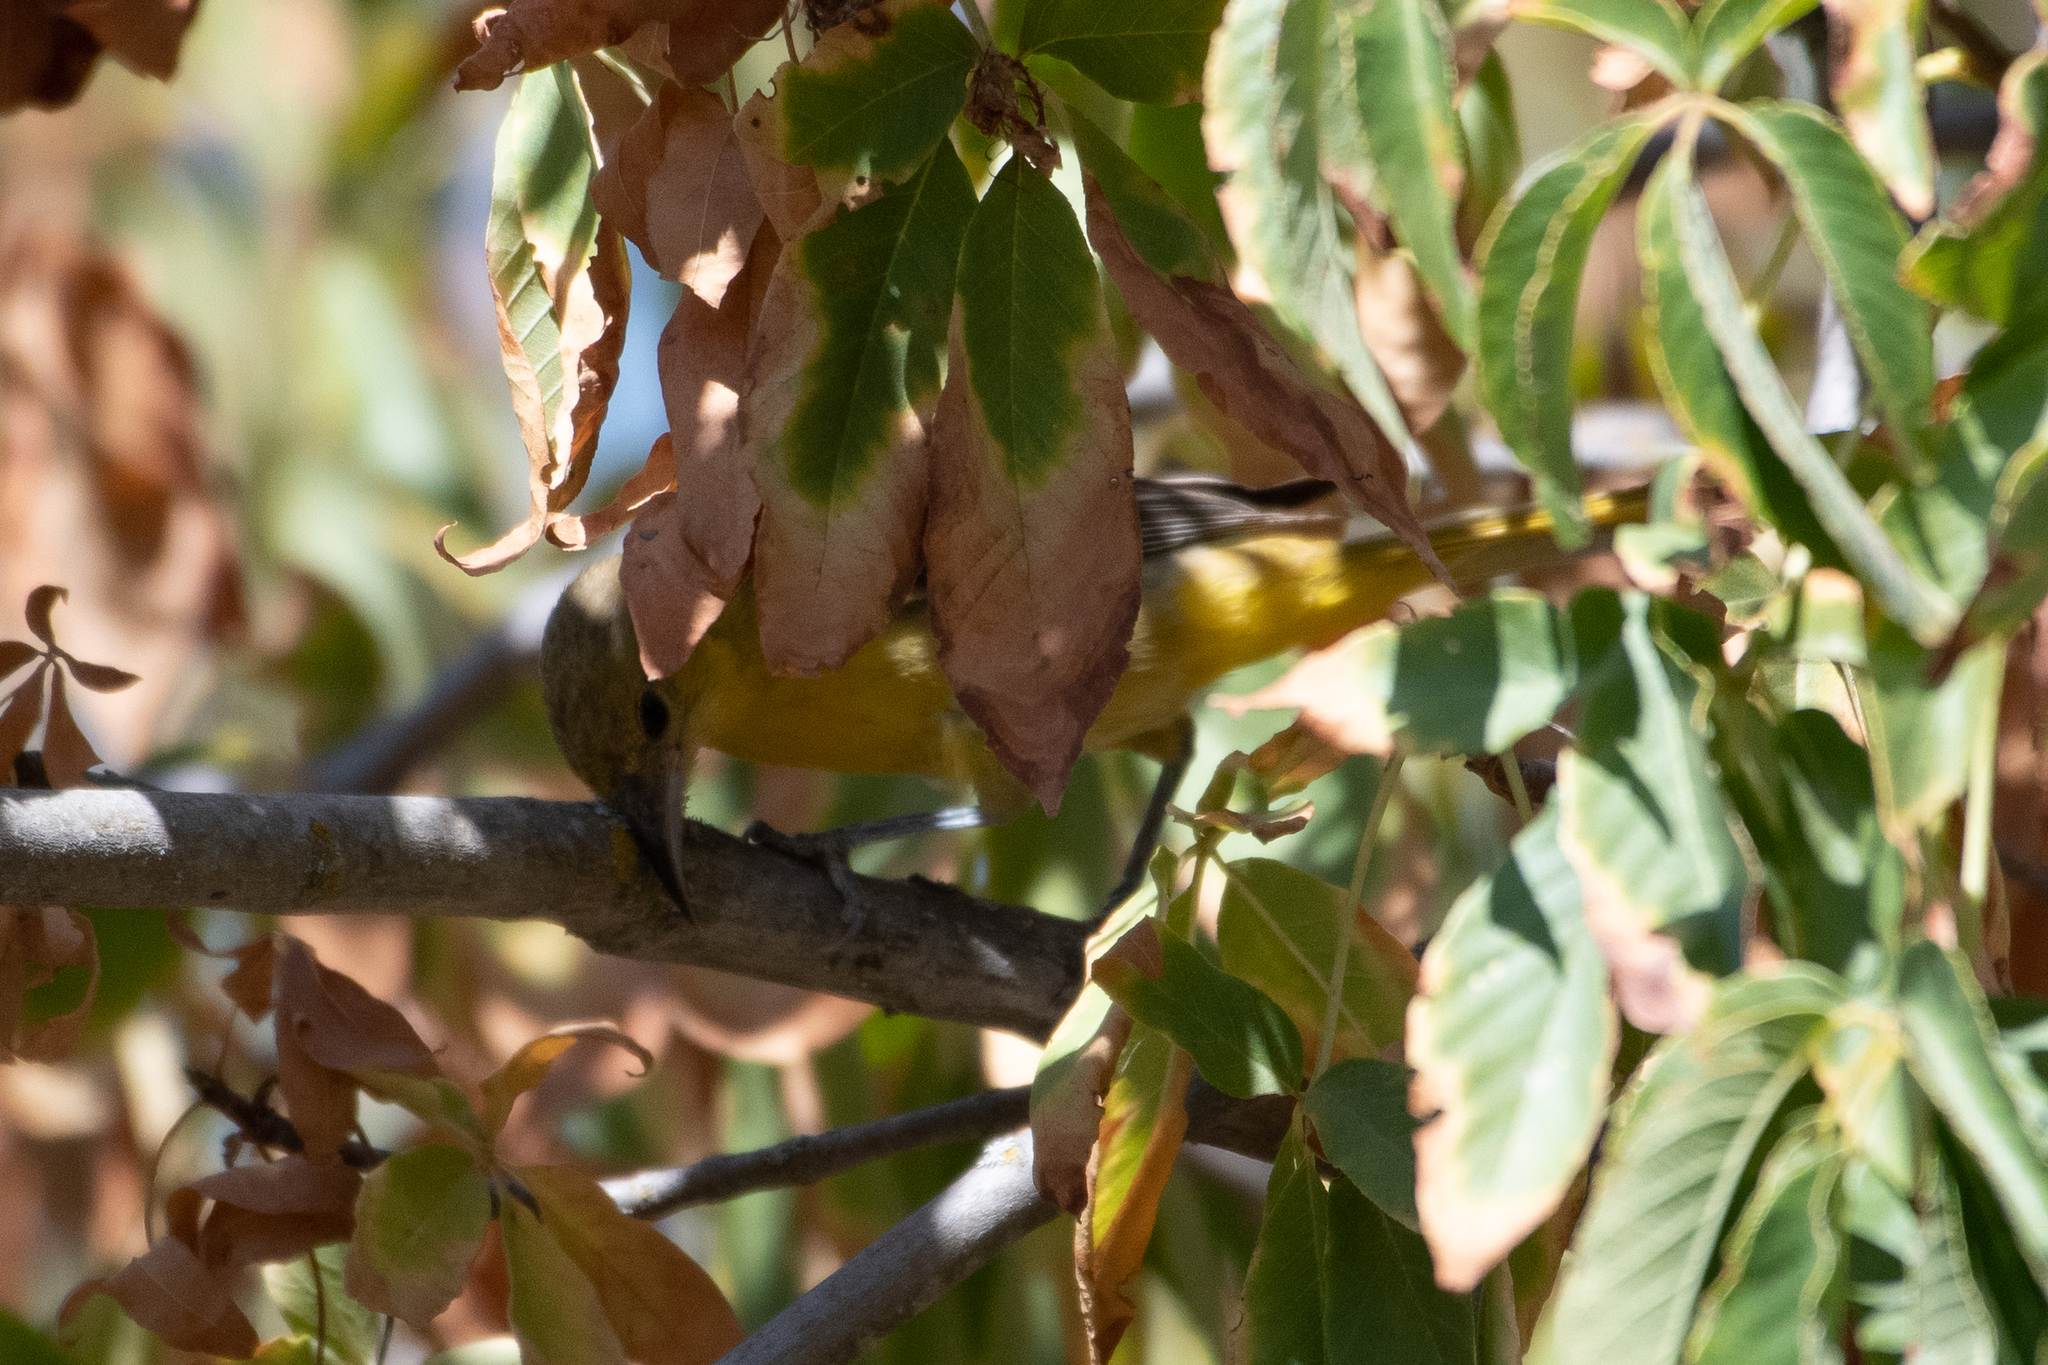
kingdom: Animalia
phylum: Chordata
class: Aves
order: Passeriformes
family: Icteridae
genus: Icterus
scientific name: Icterus cucullatus
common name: Hooded oriole
